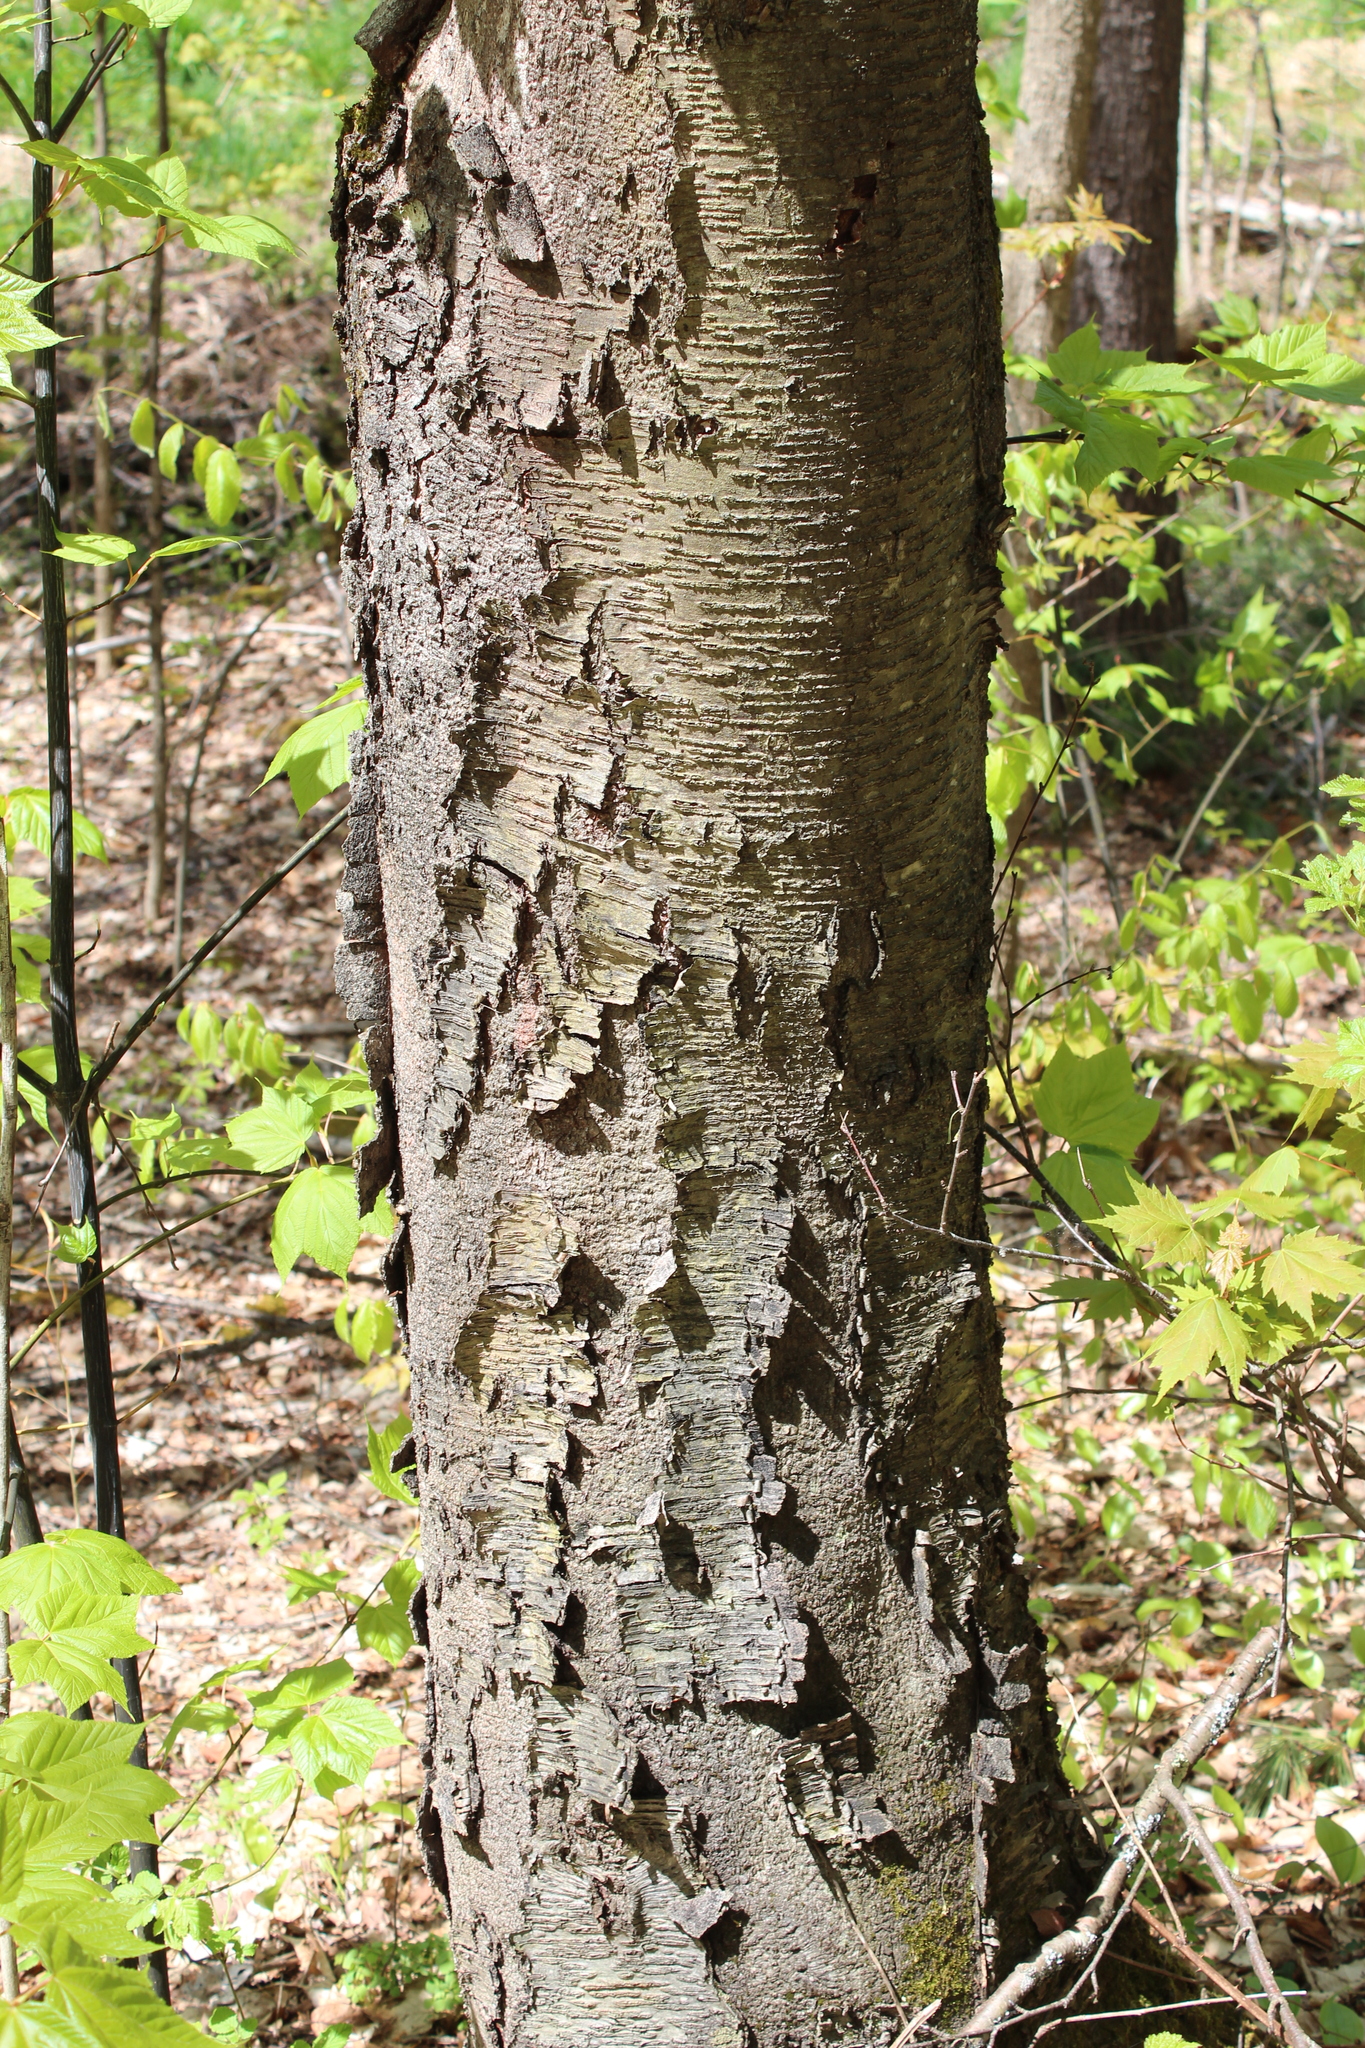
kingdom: Plantae
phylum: Tracheophyta
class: Magnoliopsida
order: Fagales
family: Betulaceae
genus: Betula
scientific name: Betula lenta
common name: Black birch
